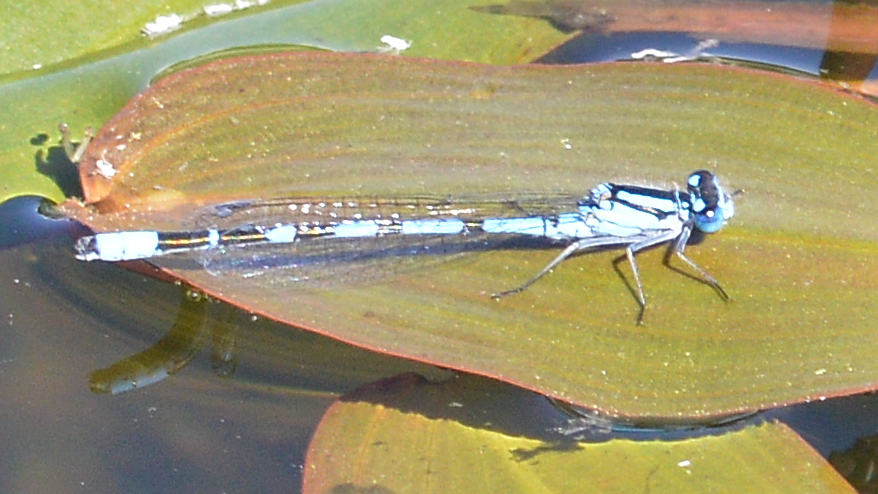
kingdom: Animalia
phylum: Arthropoda
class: Insecta
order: Odonata
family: Coenagrionidae
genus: Enallagma
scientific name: Enallagma cyathigerum
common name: Common blue damselfly
